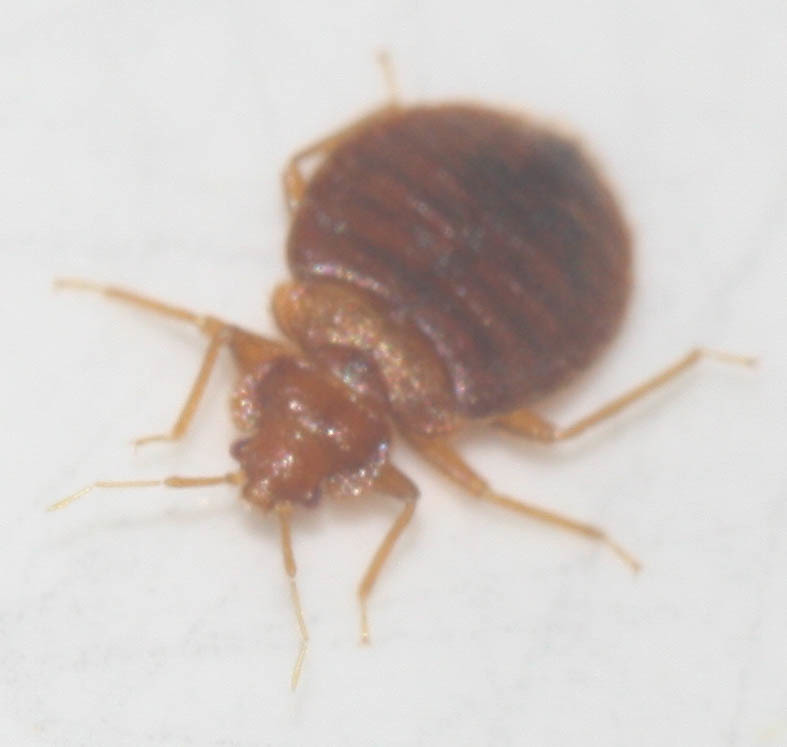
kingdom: Animalia
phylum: Arthropoda
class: Insecta
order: Hemiptera
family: Cimicidae
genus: Cimex
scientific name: Cimex lectularius
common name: Bed bug
